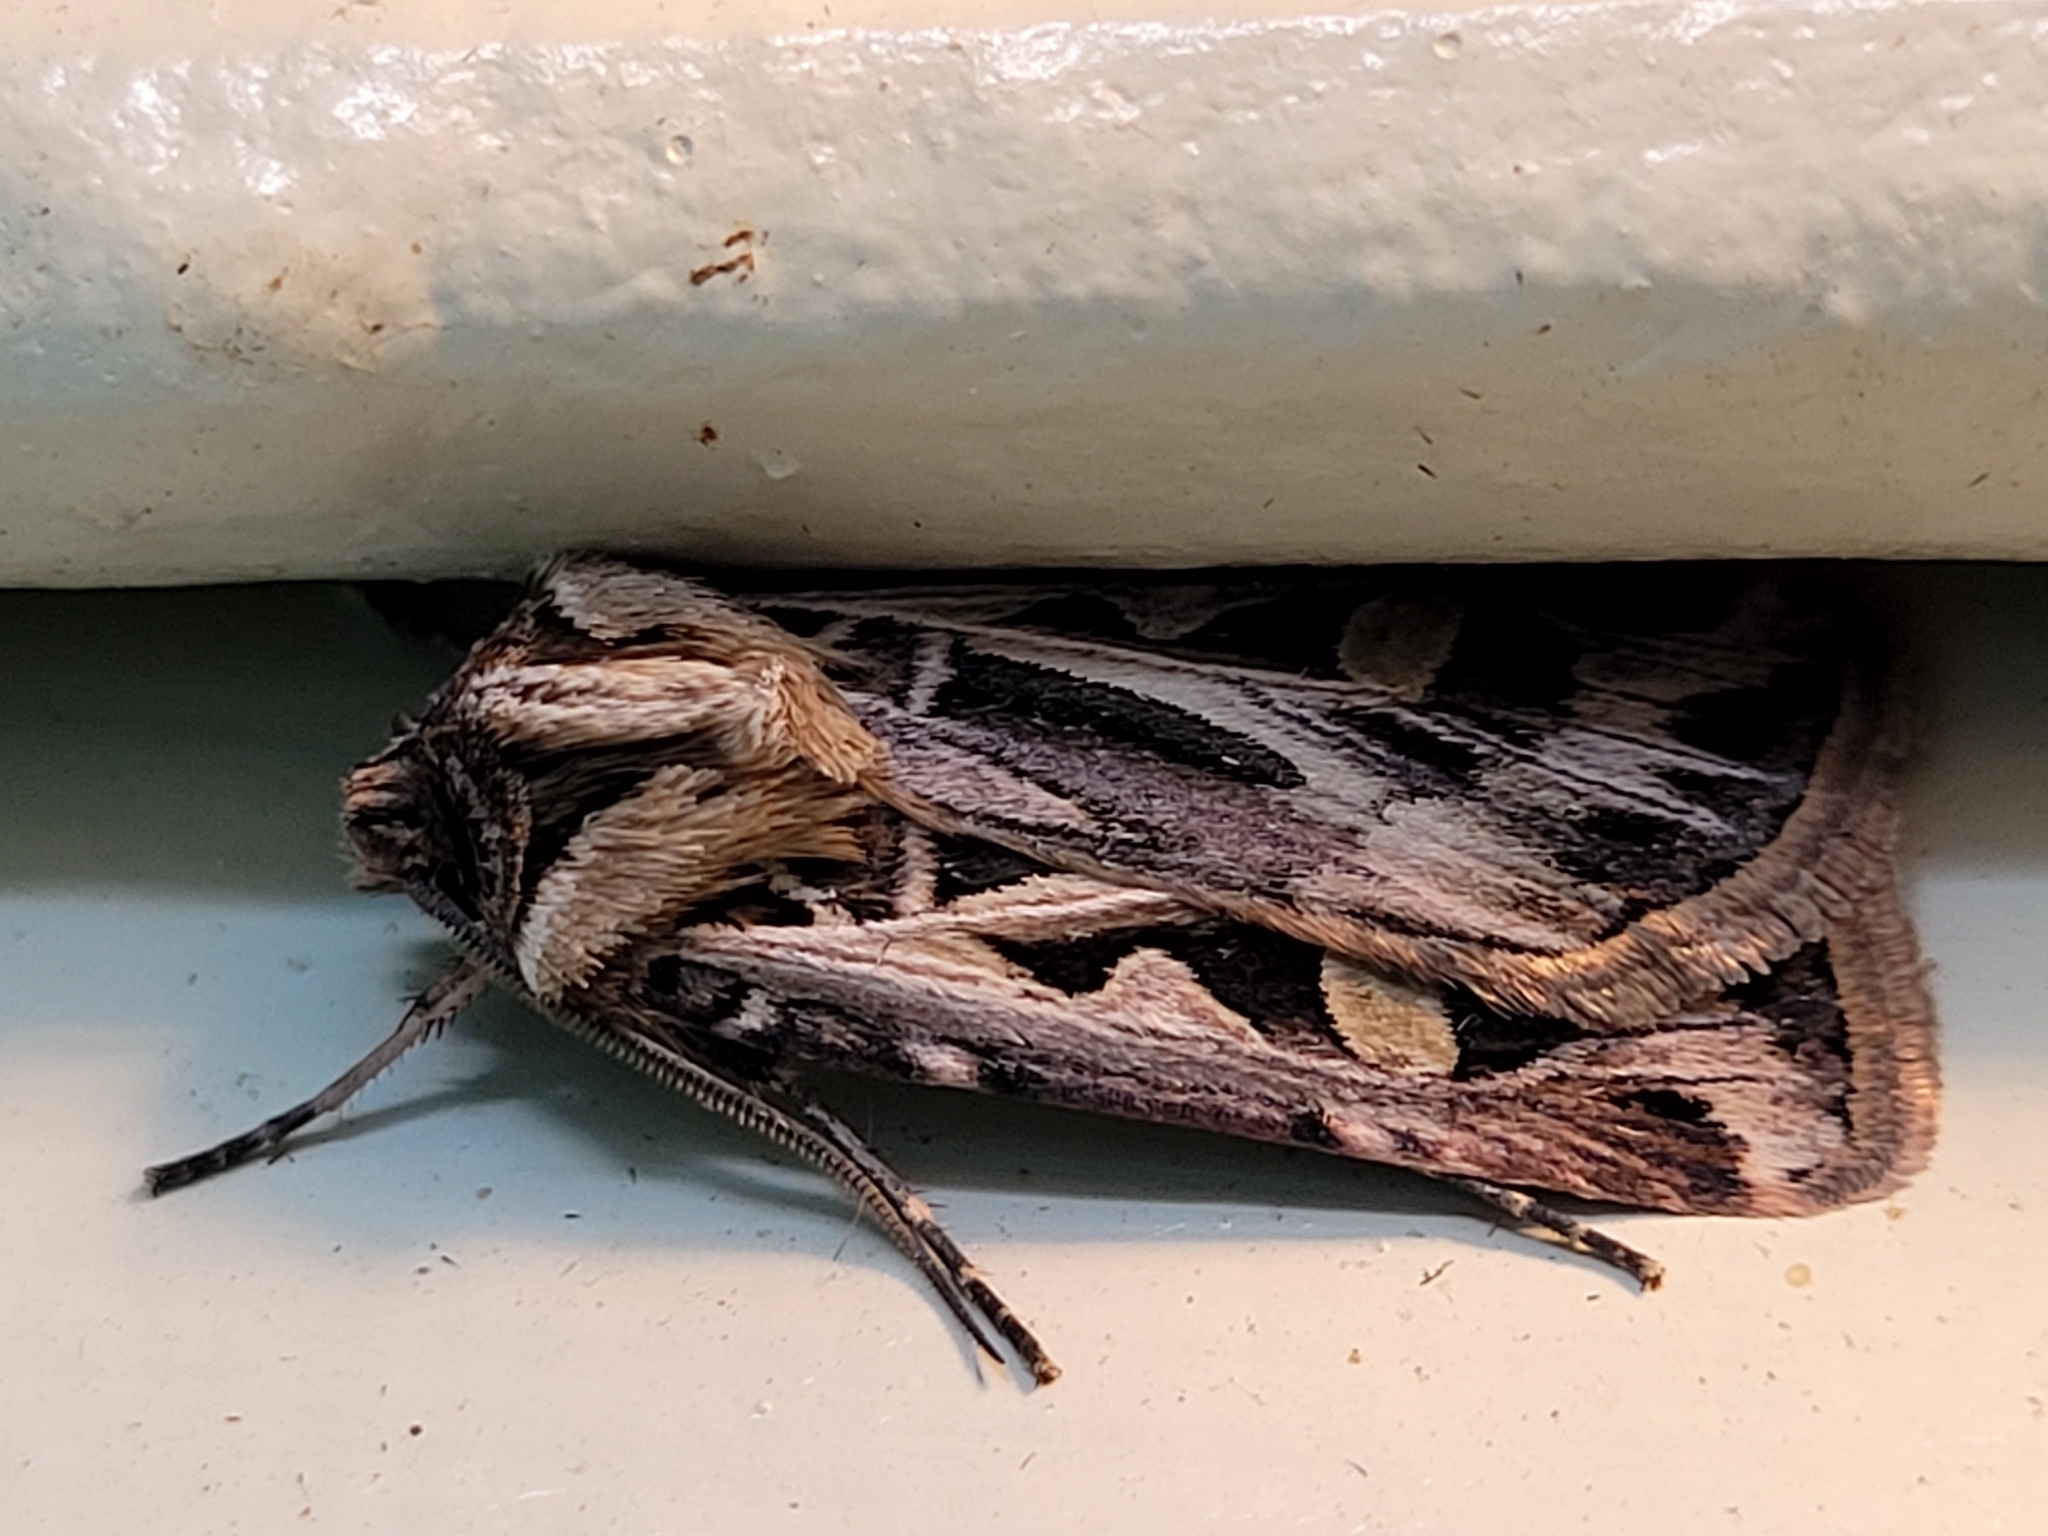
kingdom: Animalia
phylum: Arthropoda
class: Insecta
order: Lepidoptera
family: Noctuidae
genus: Feltia
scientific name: Feltia jaculifera
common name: Dingy cutworm moth
